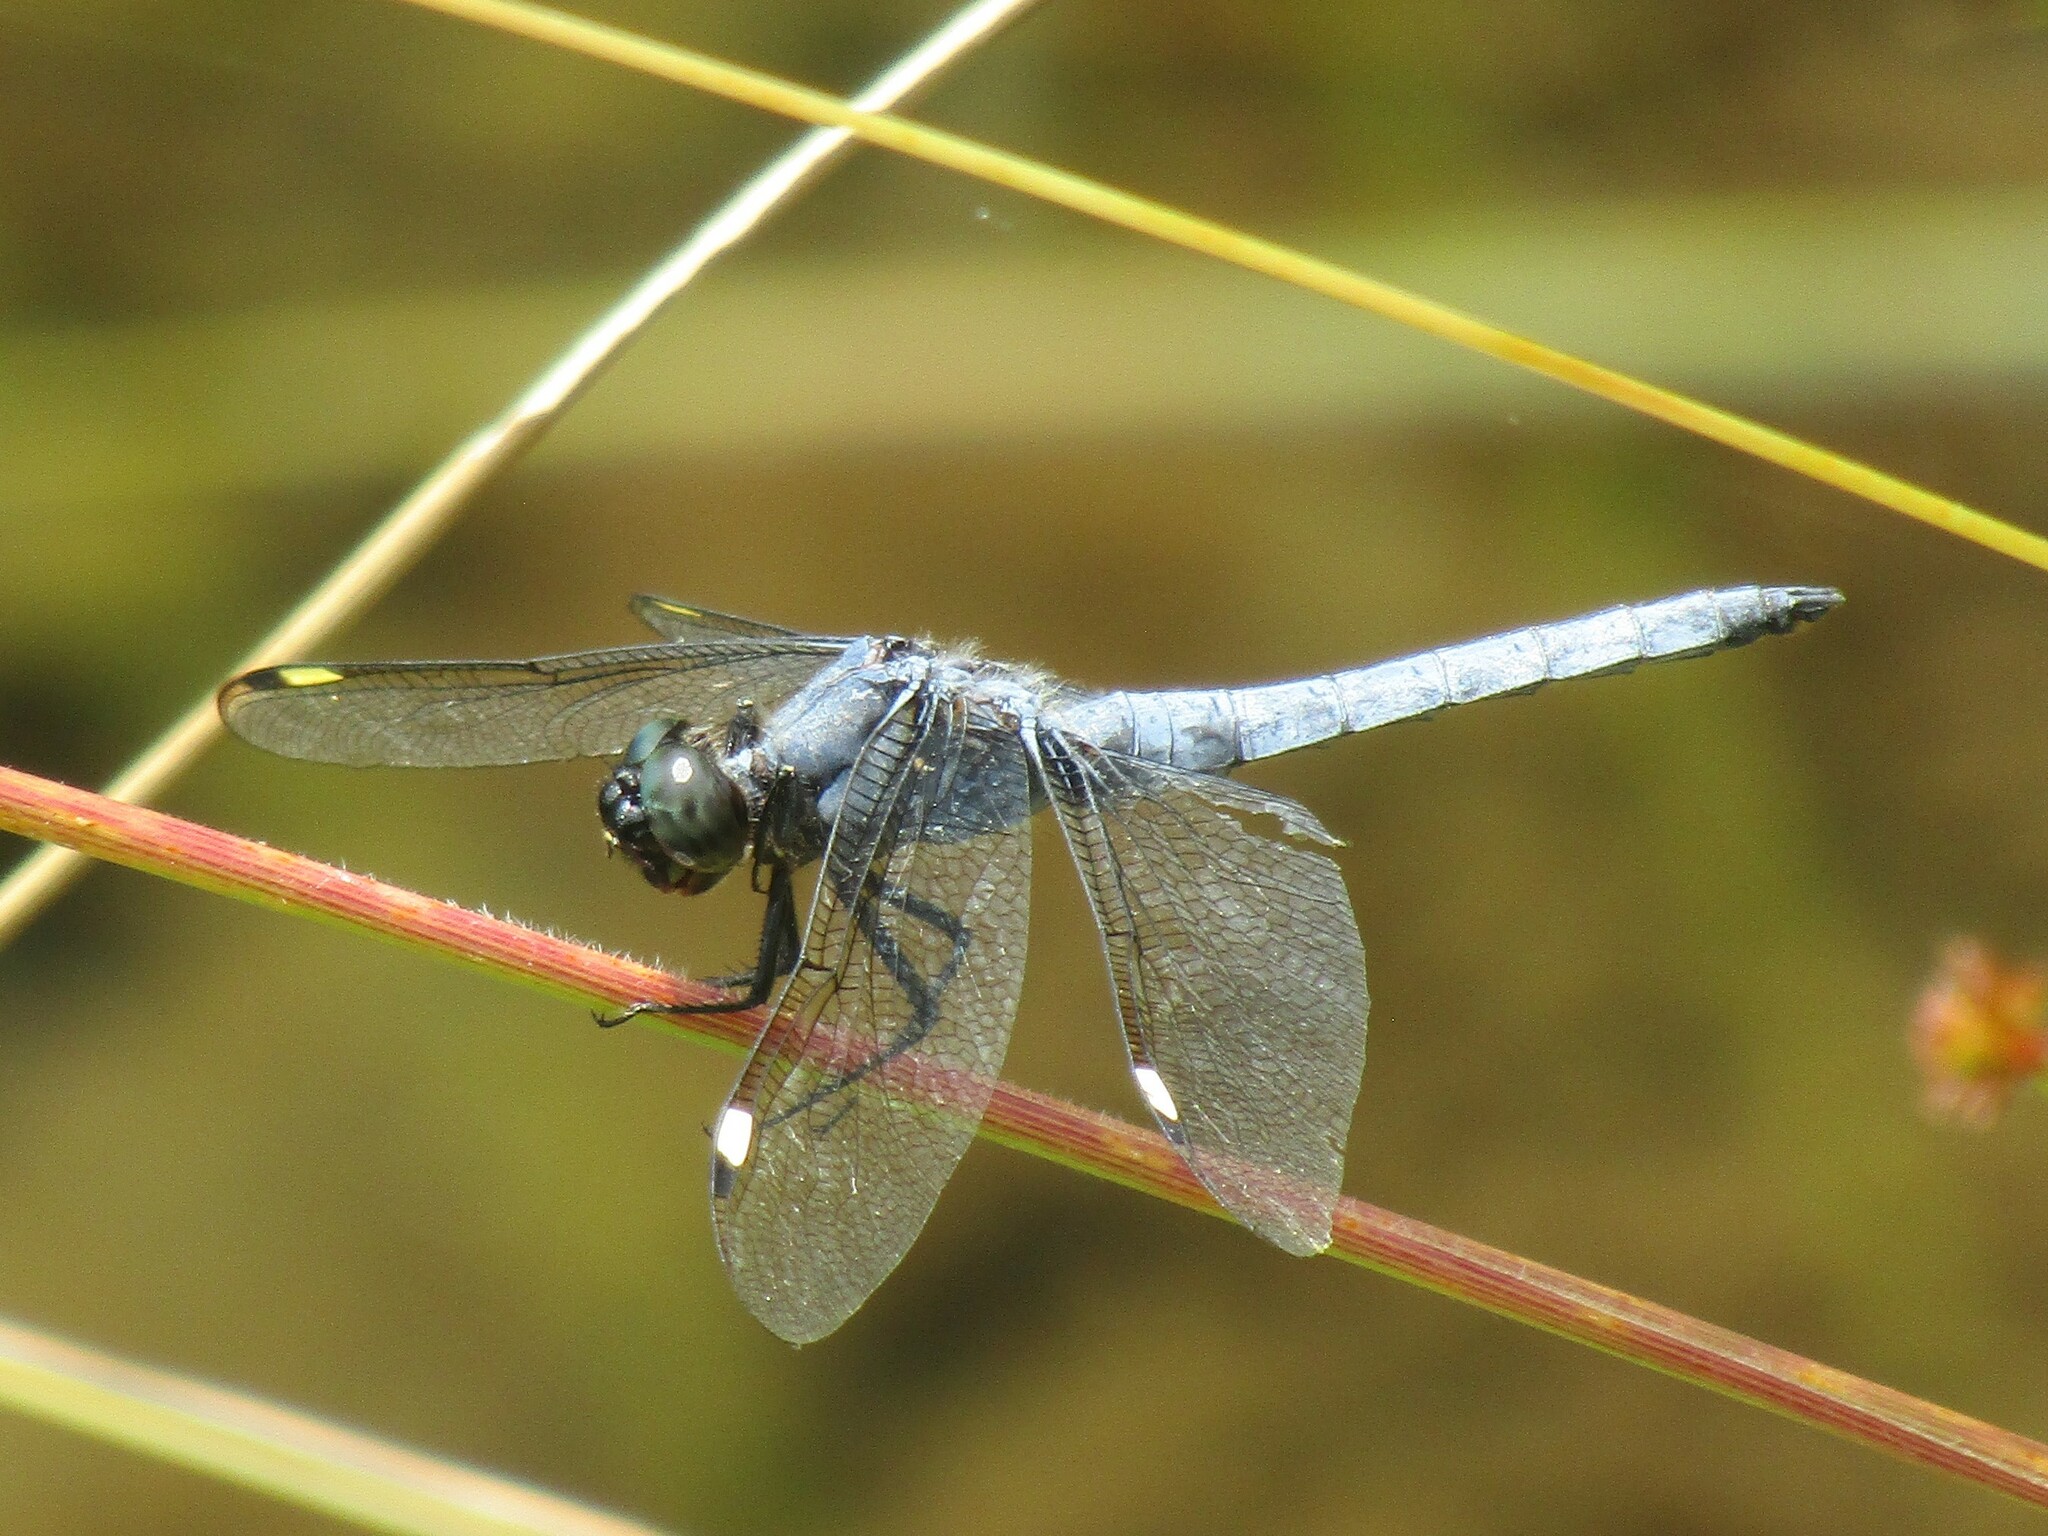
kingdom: Animalia
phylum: Arthropoda
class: Insecta
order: Odonata
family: Libellulidae
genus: Libellula
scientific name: Libellula cyanea
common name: Spangled skimmer
